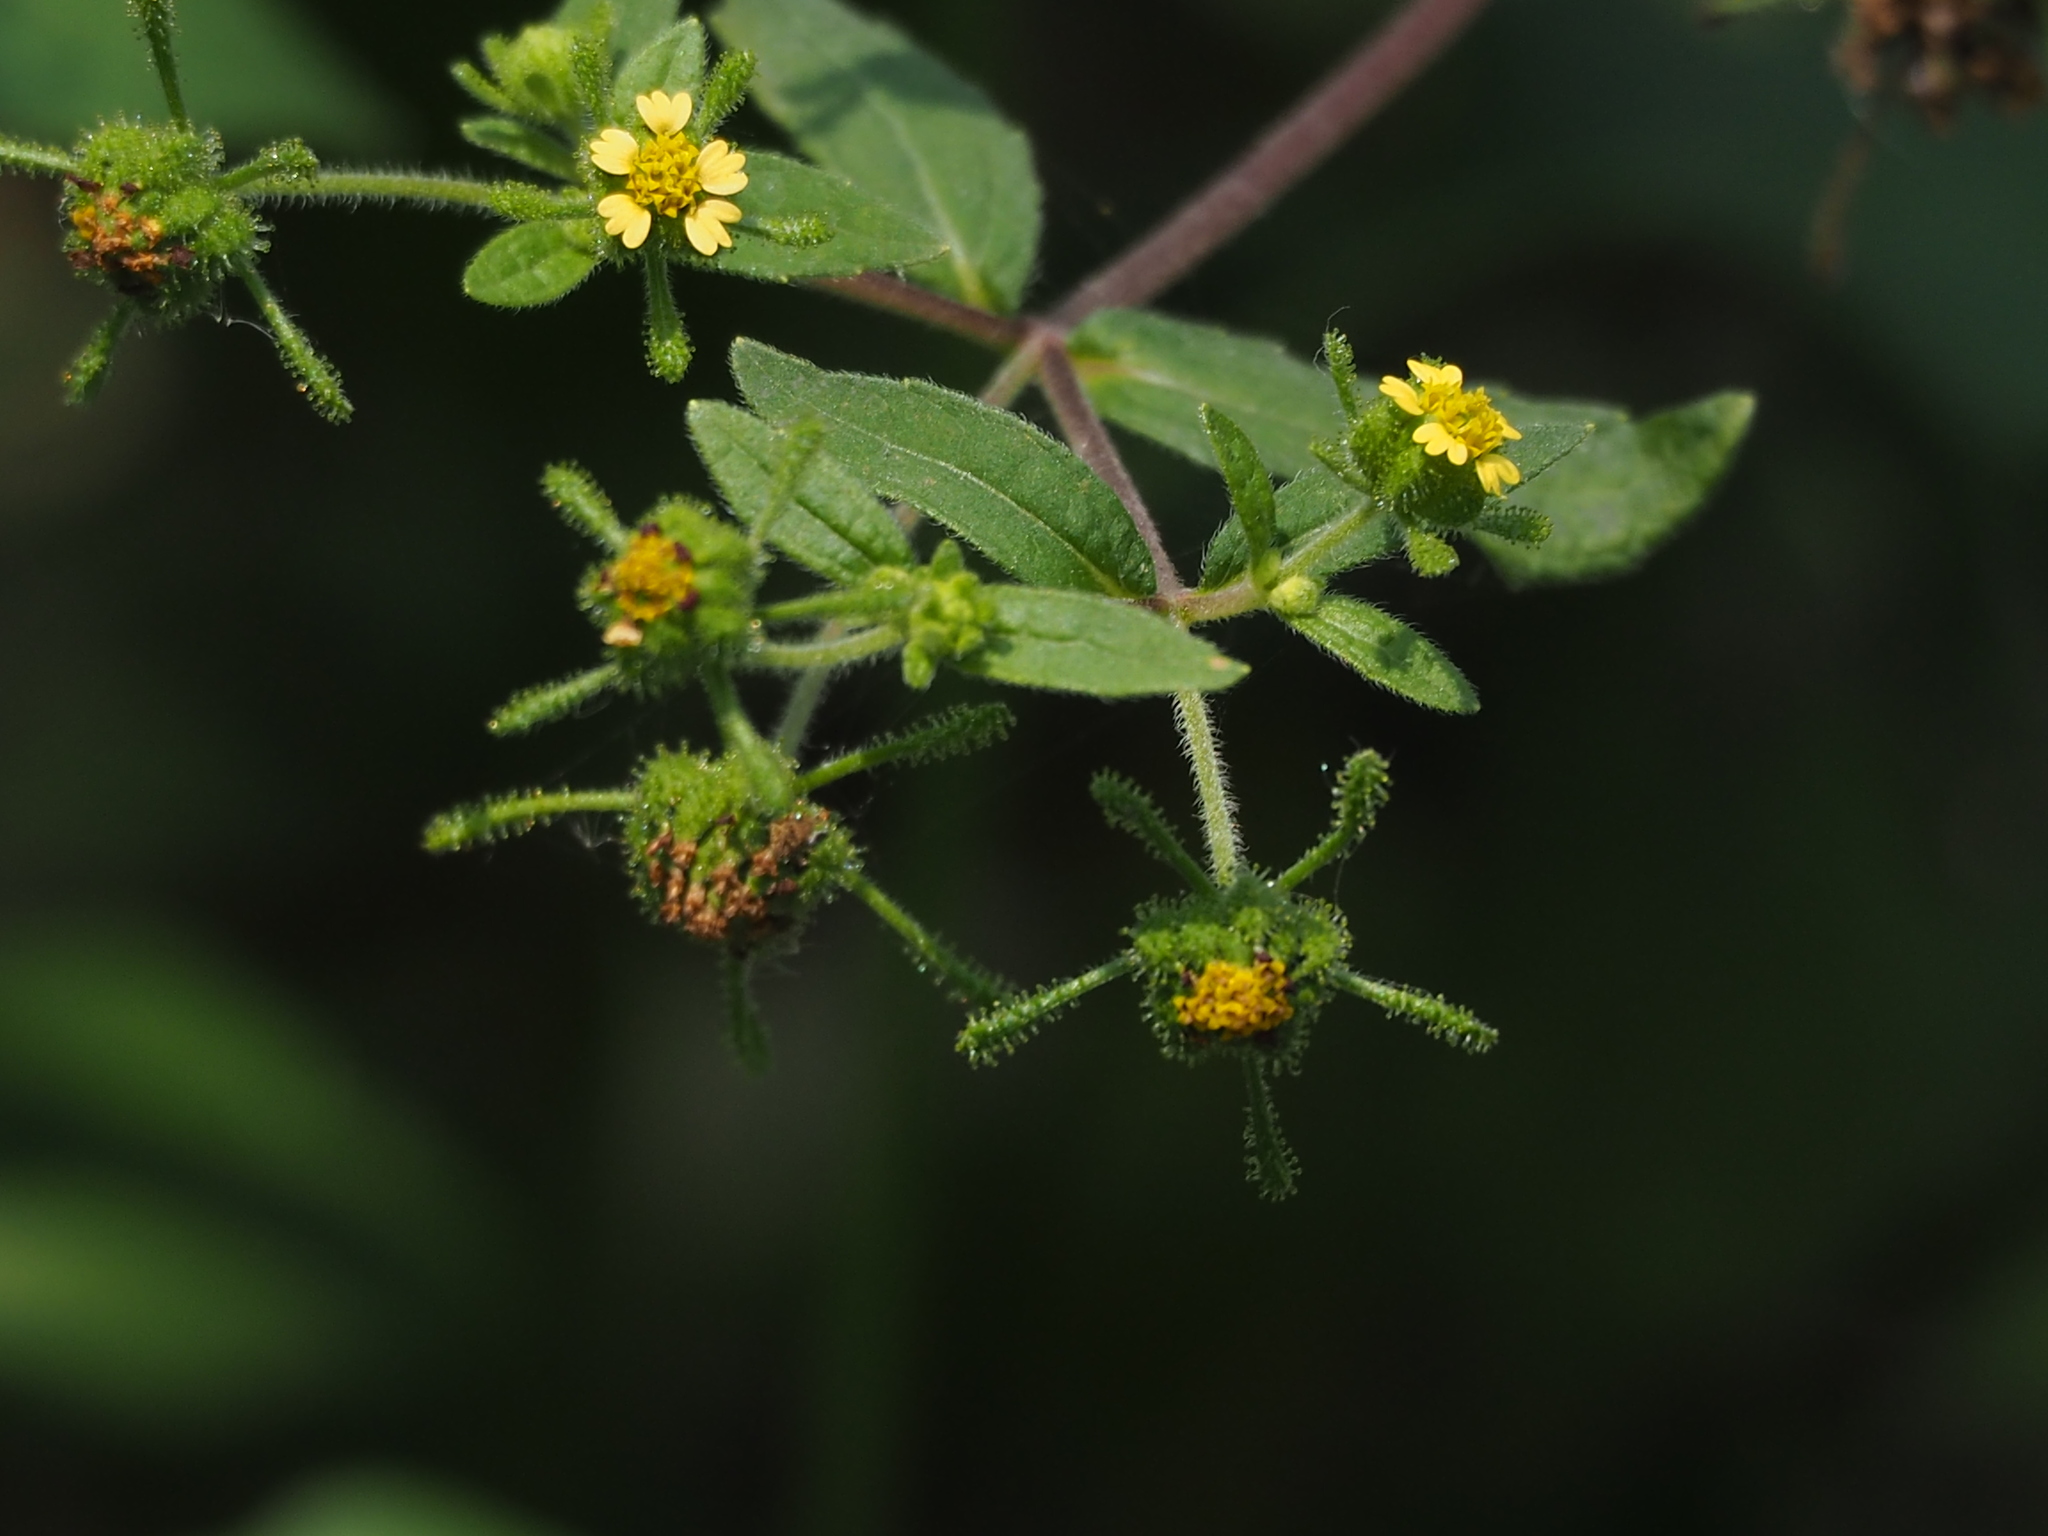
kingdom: Plantae
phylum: Tracheophyta
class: Magnoliopsida
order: Asterales
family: Asteraceae
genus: Sigesbeckia
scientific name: Sigesbeckia orientalis
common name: Eastern st paul's-wort
